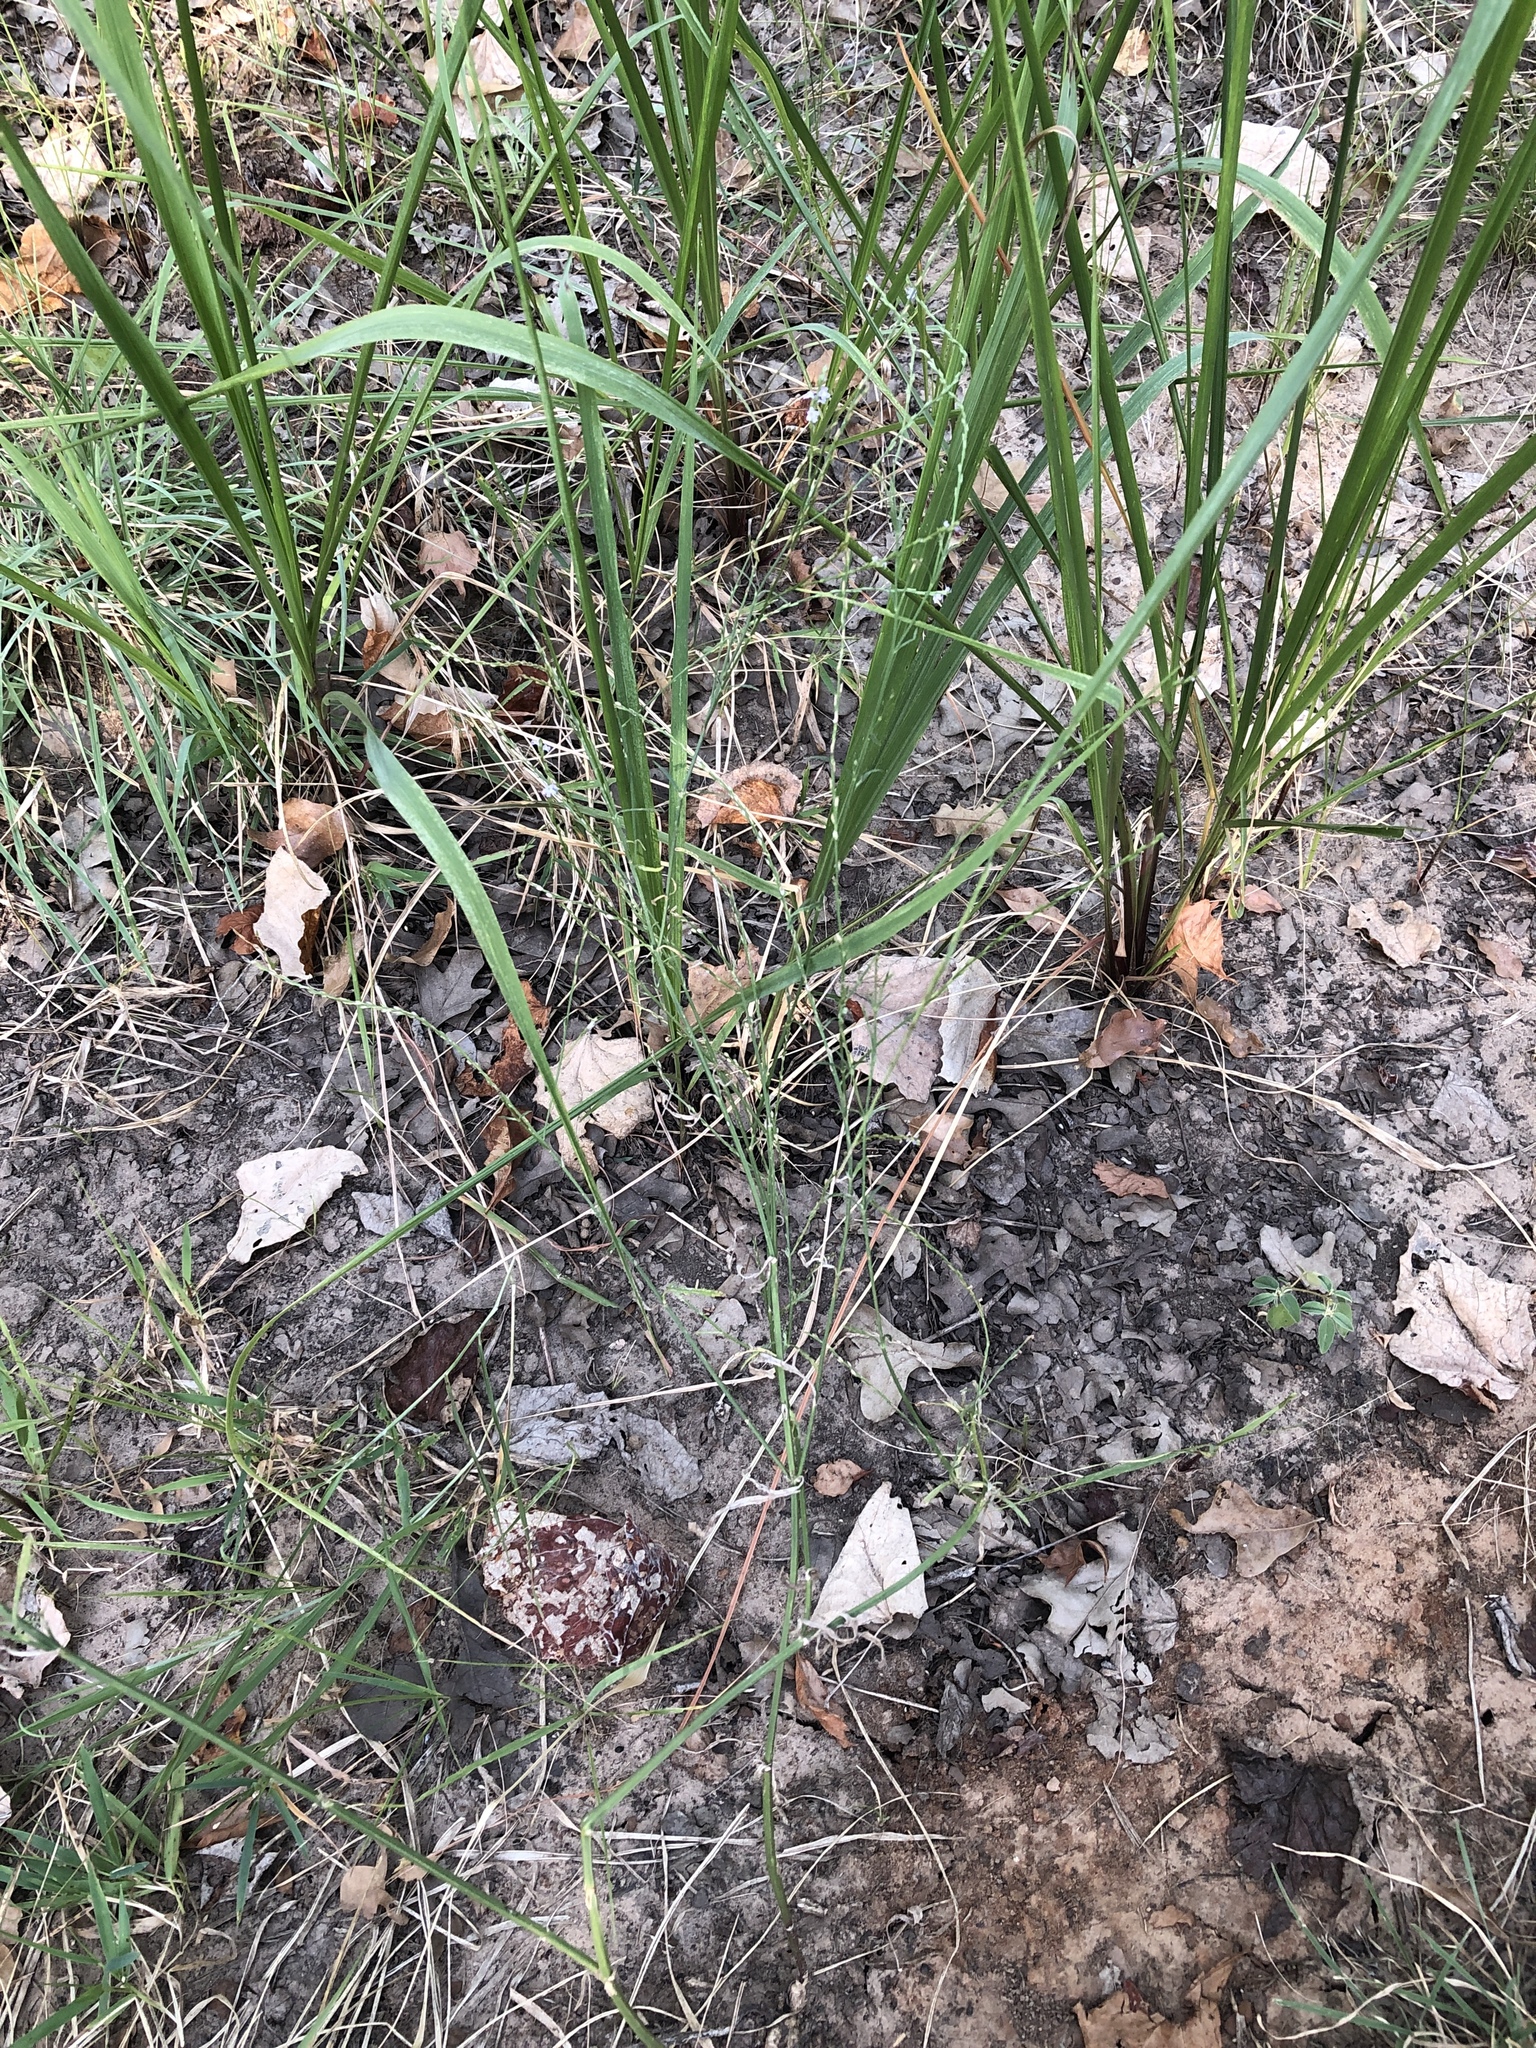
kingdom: Plantae
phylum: Tracheophyta
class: Magnoliopsida
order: Lamiales
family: Verbenaceae
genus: Verbena
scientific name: Verbena halei
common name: Texas vervain
